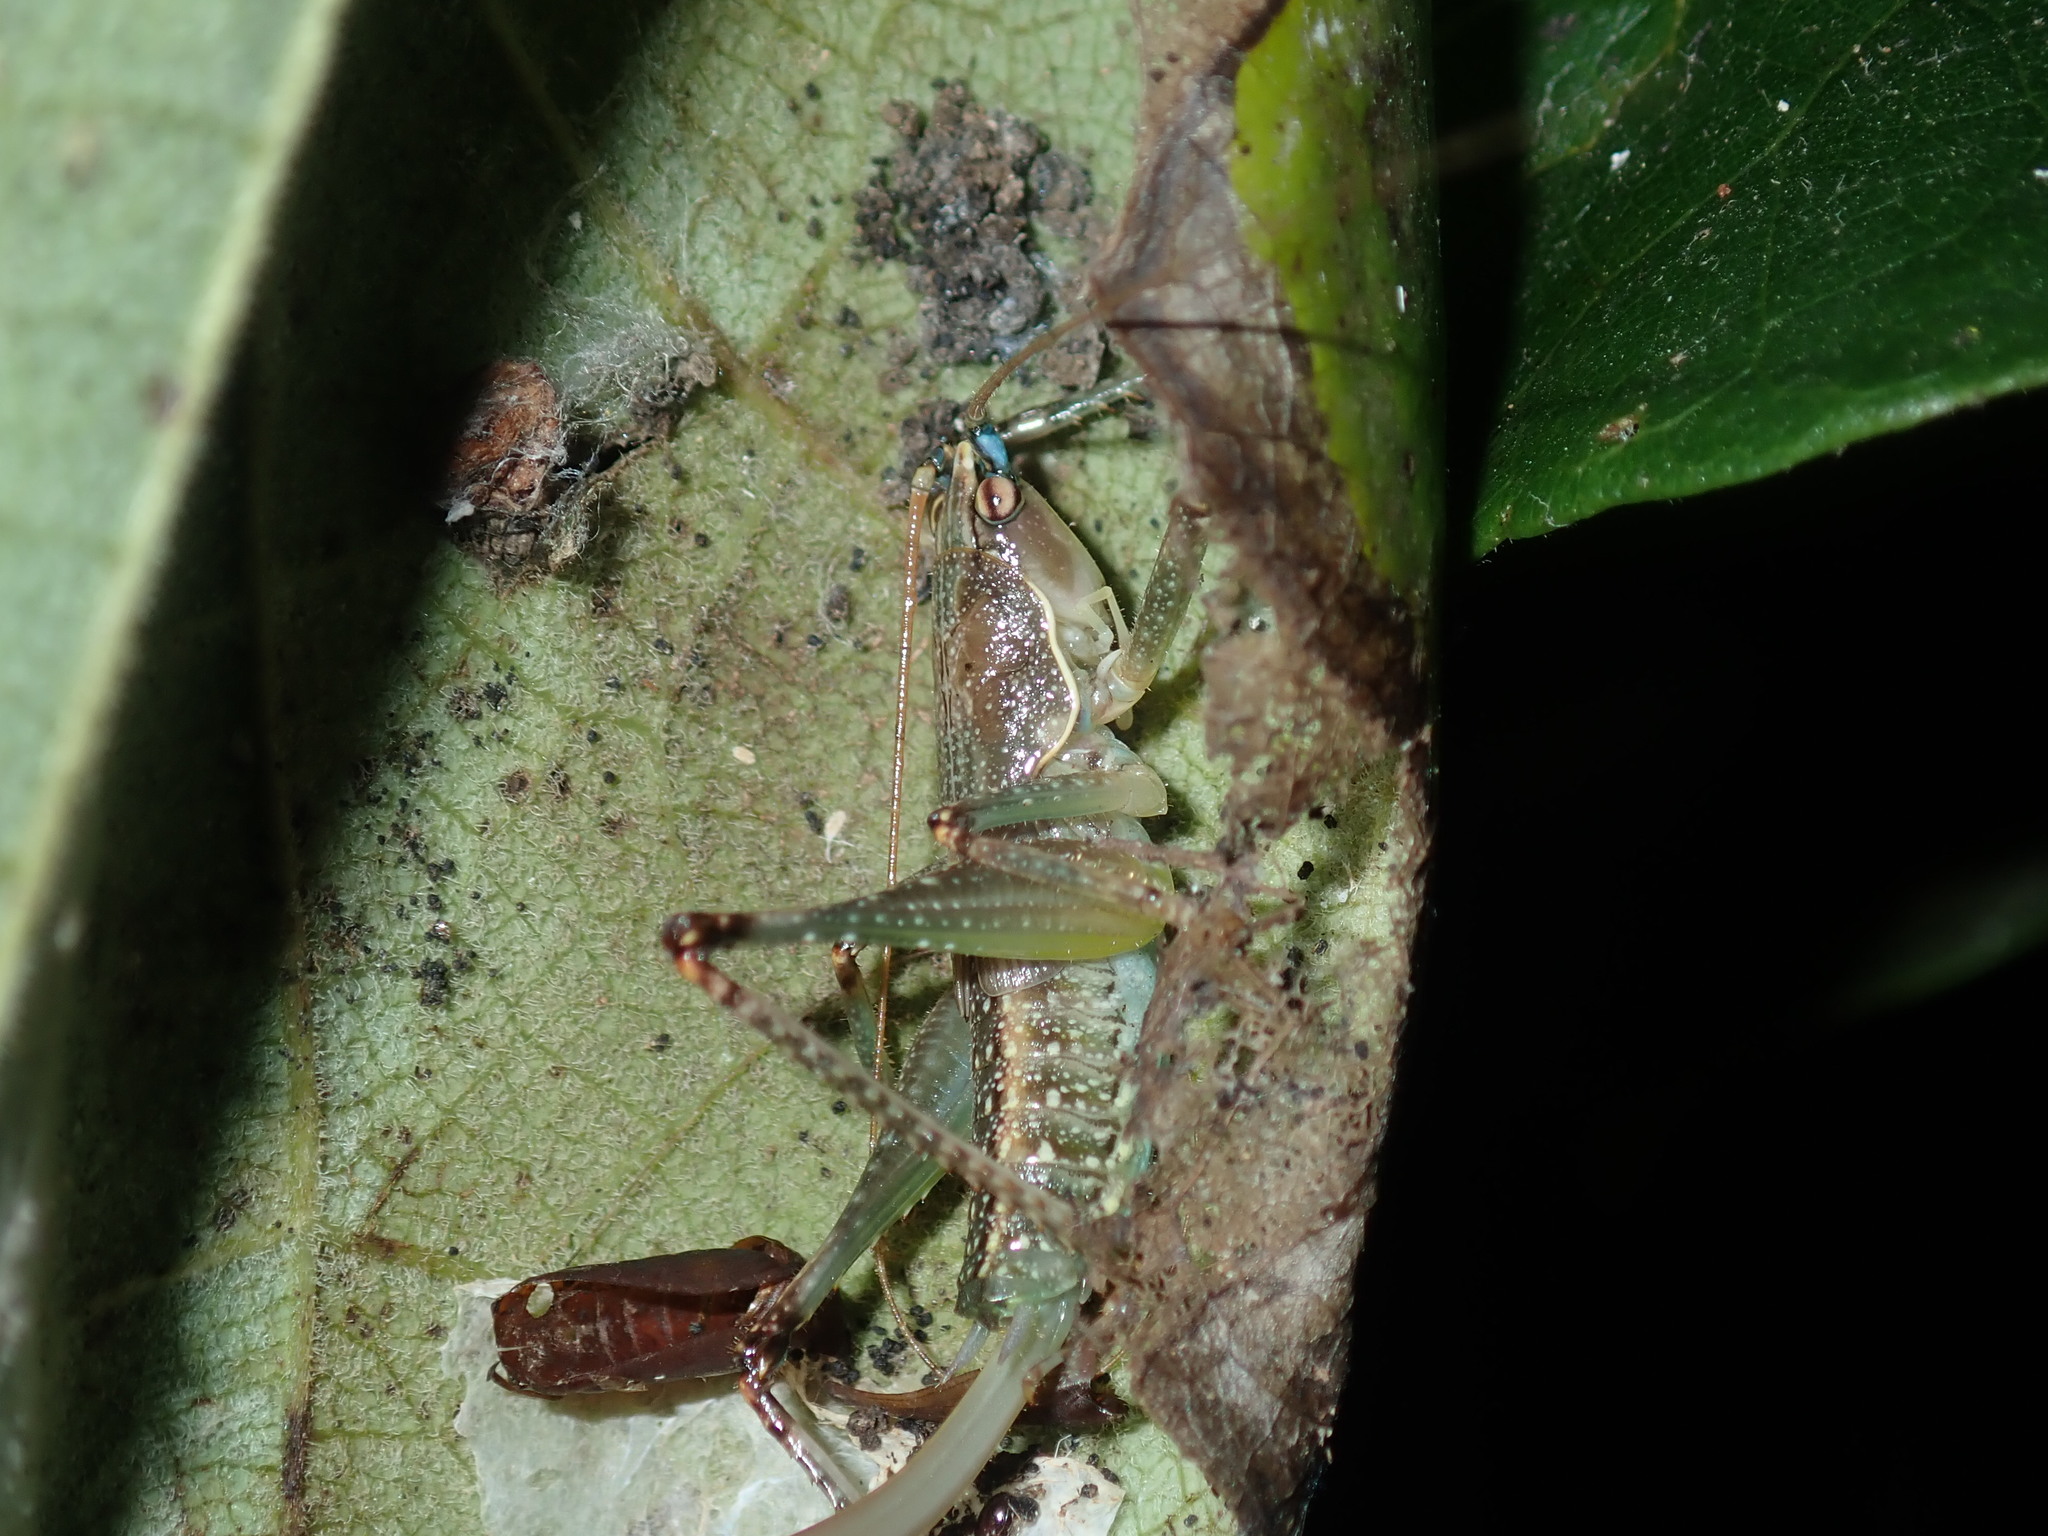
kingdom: Animalia
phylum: Arthropoda
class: Insecta
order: Orthoptera
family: Tettigoniidae
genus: Austrosalomona
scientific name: Austrosalomona falcata
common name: Olive-green coastal katydid
